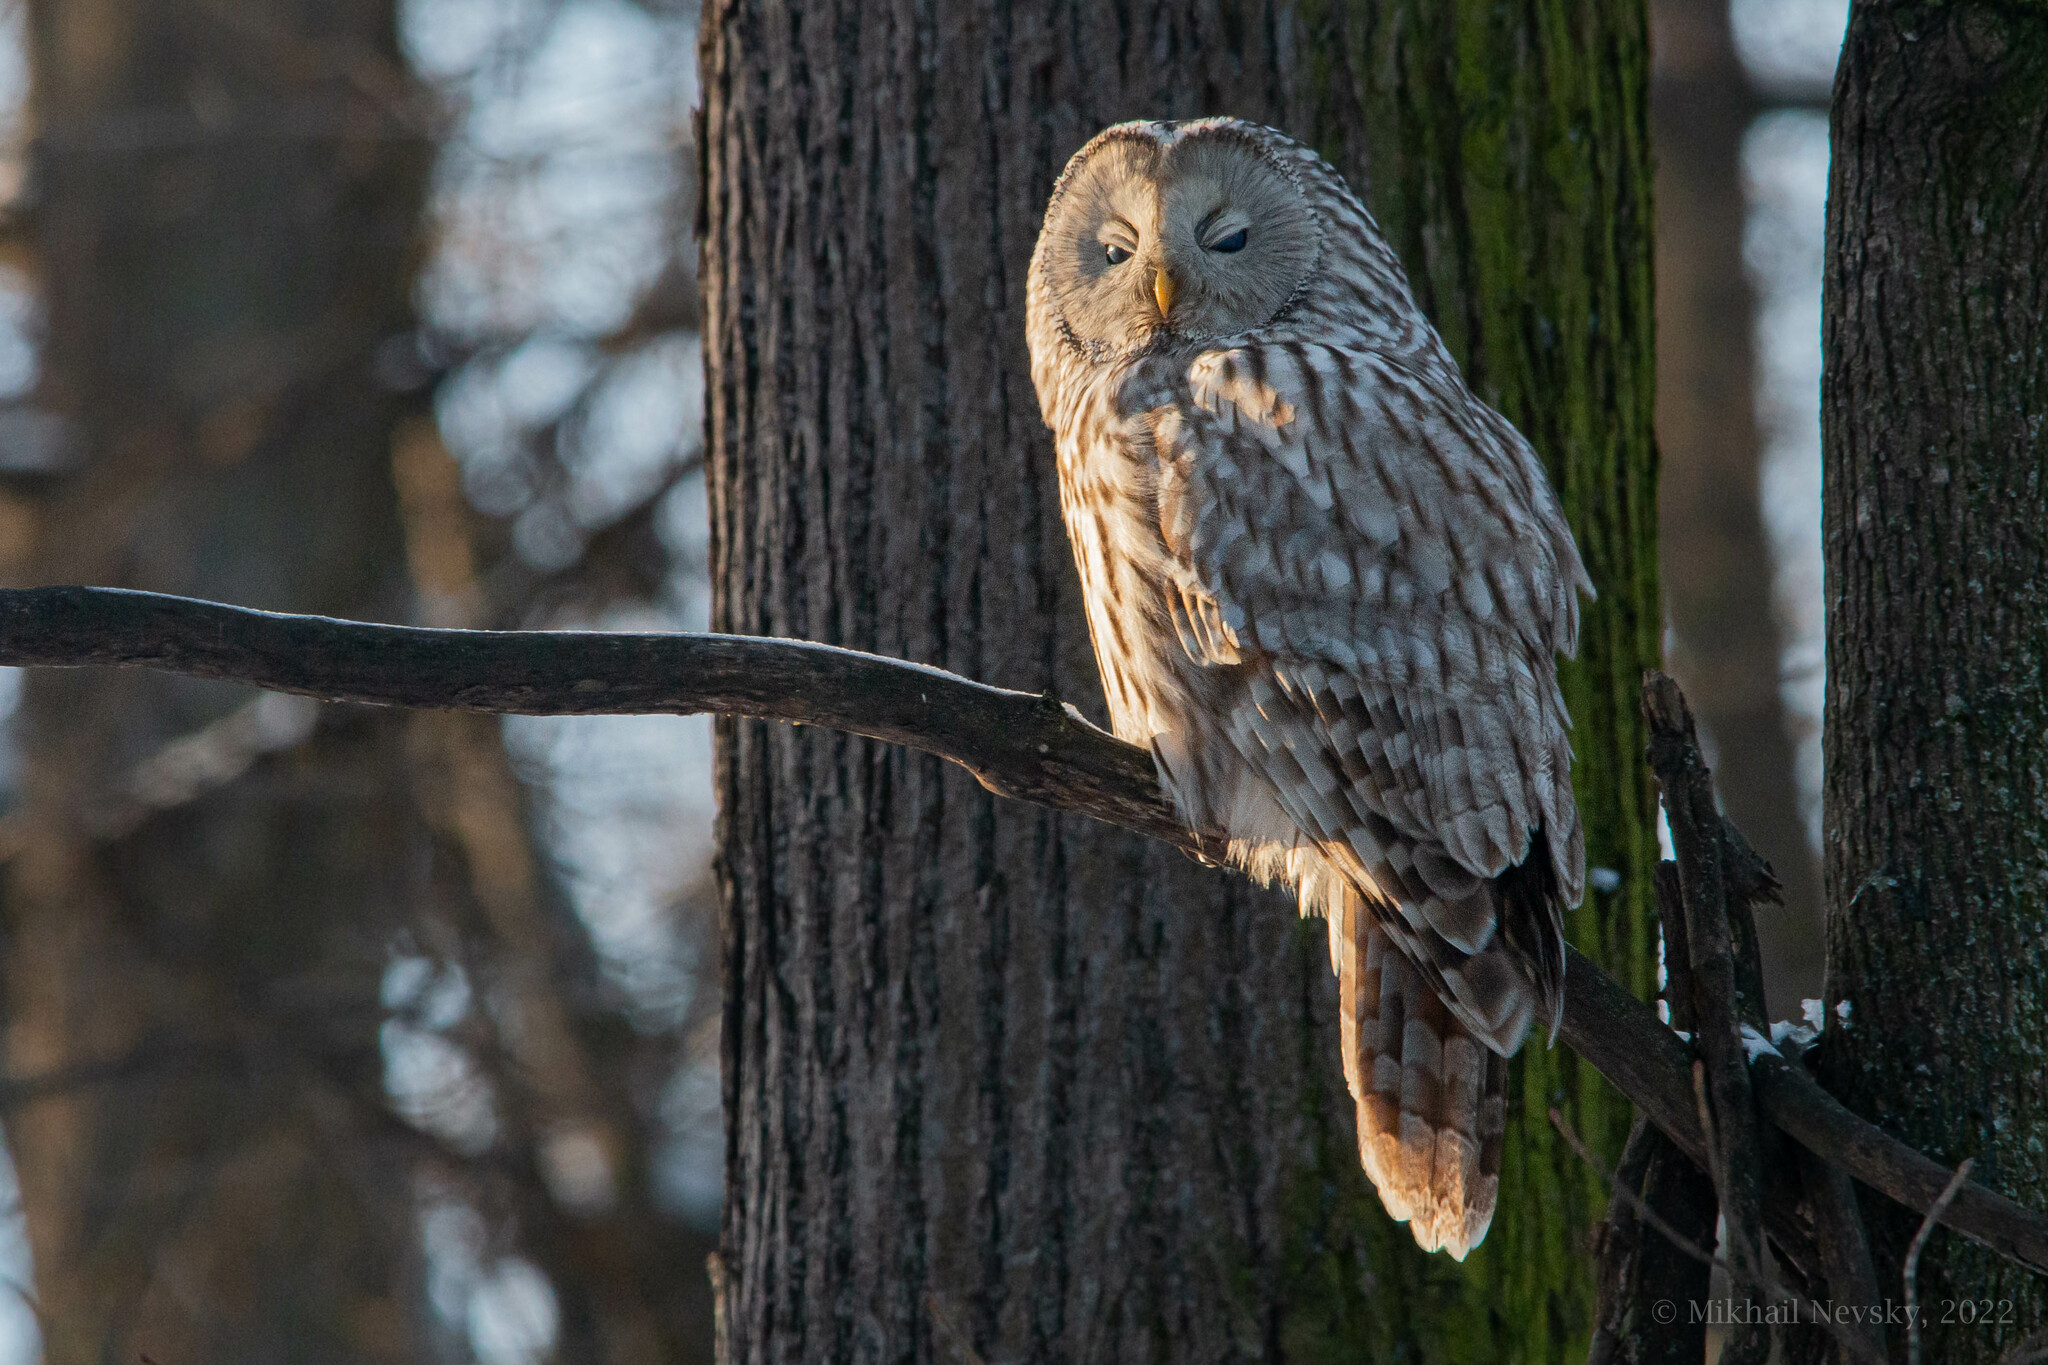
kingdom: Animalia
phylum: Chordata
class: Aves
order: Strigiformes
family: Strigidae
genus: Strix
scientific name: Strix uralensis
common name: Ural owl
